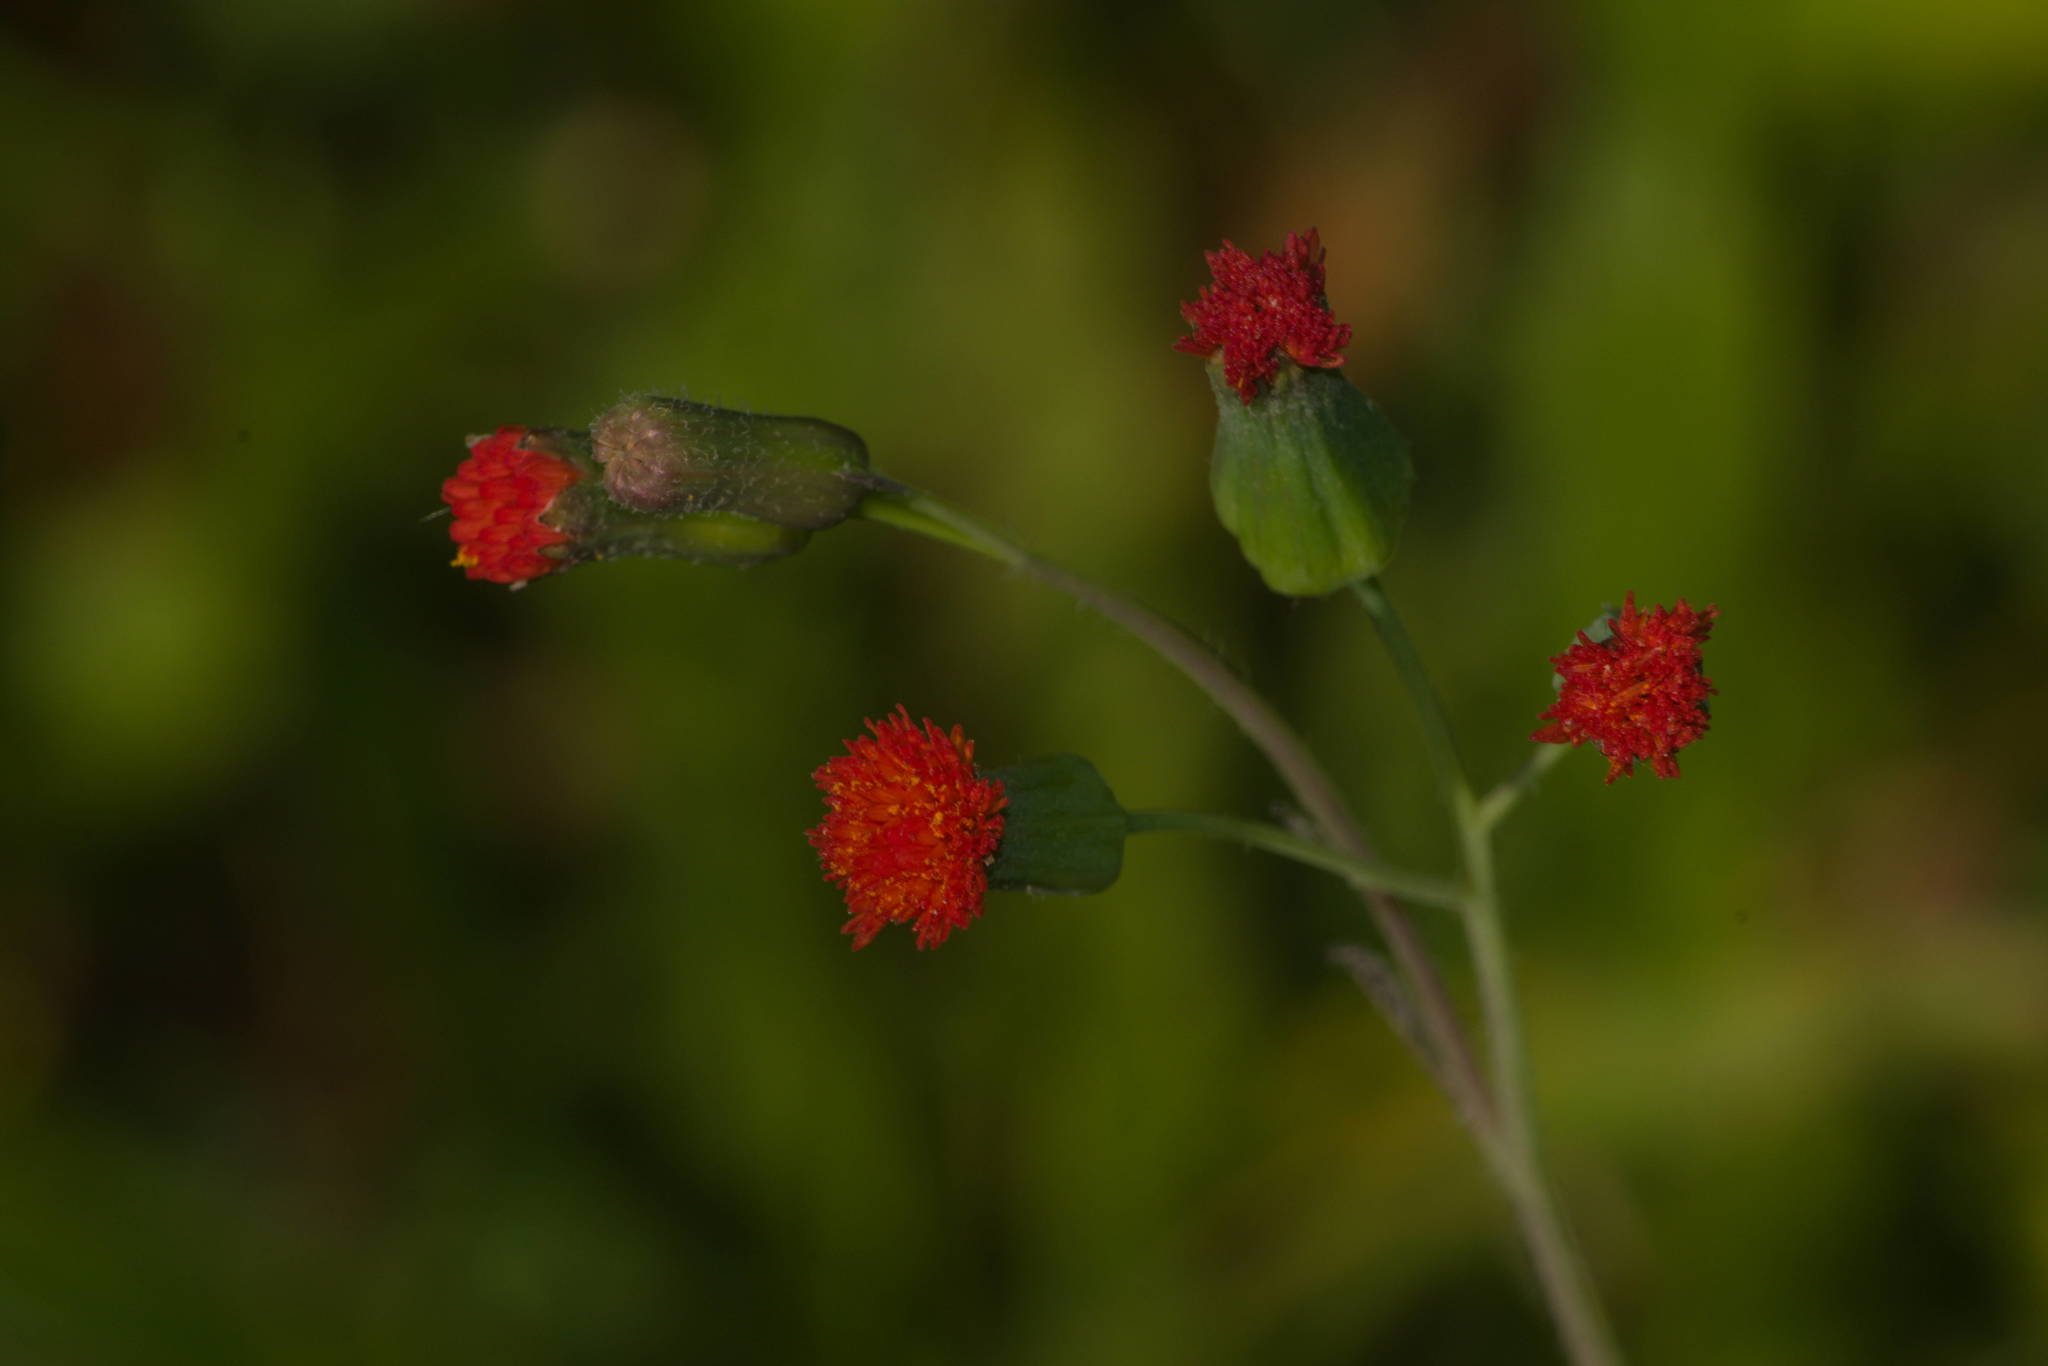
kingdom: Plantae
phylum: Tracheophyta
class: Magnoliopsida
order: Asterales
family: Asteraceae
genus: Emilia
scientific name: Emilia fosbergii
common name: Florida tasselflower
